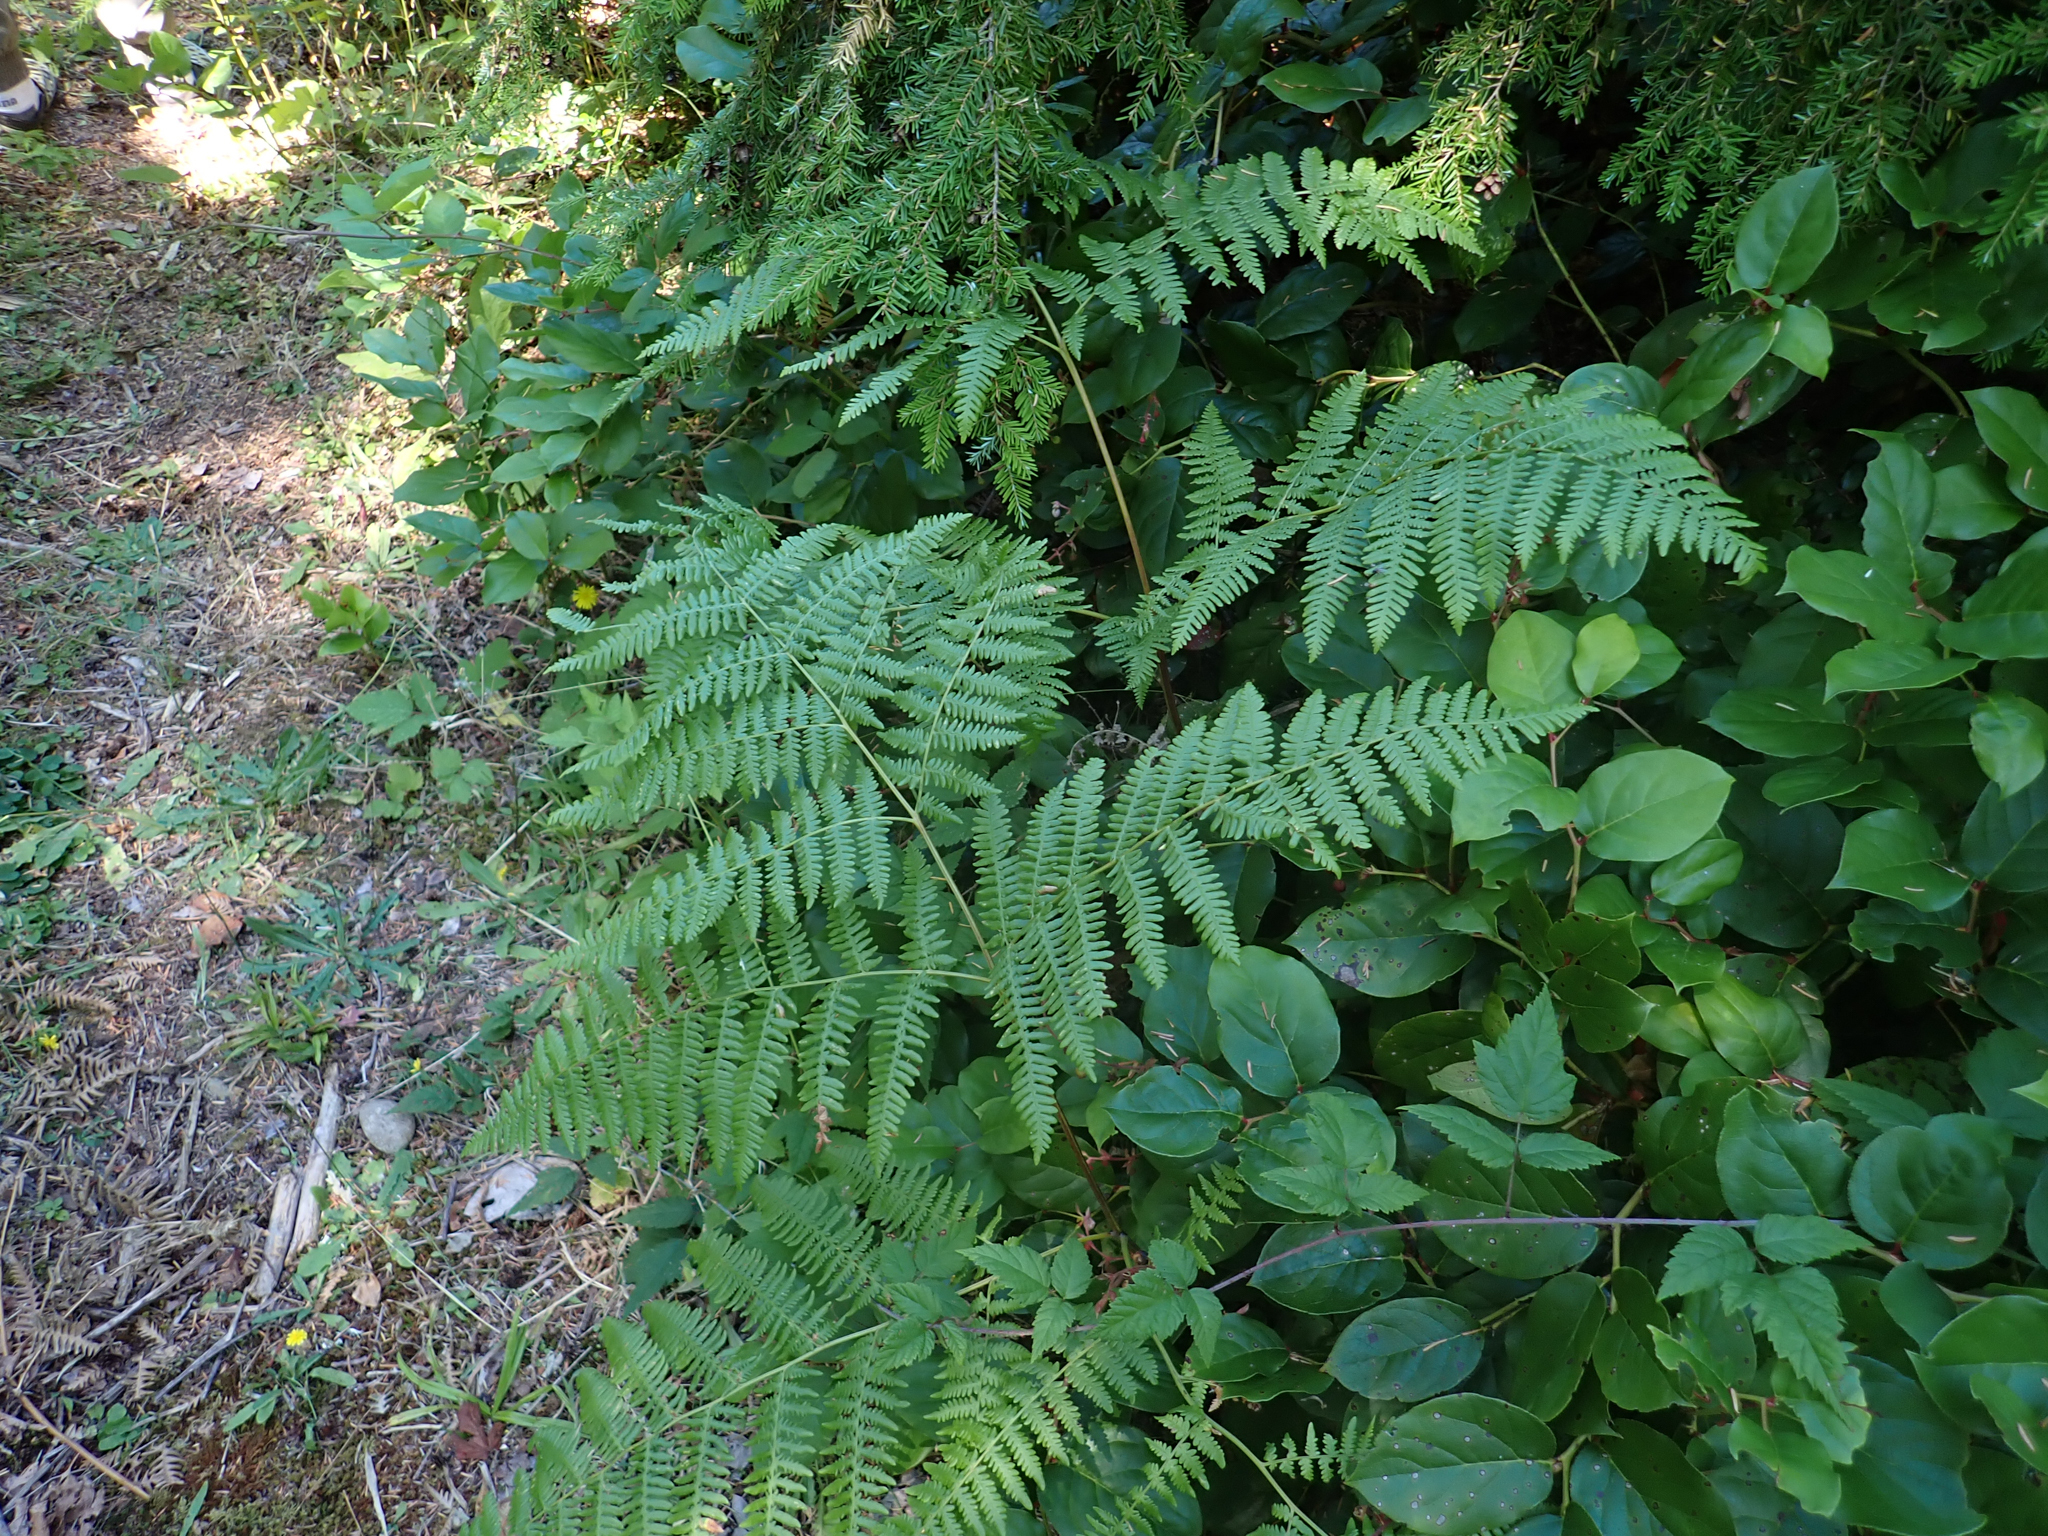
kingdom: Plantae
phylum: Tracheophyta
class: Polypodiopsida
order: Polypodiales
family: Dennstaedtiaceae
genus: Pteridium
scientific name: Pteridium aquilinum
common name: Bracken
